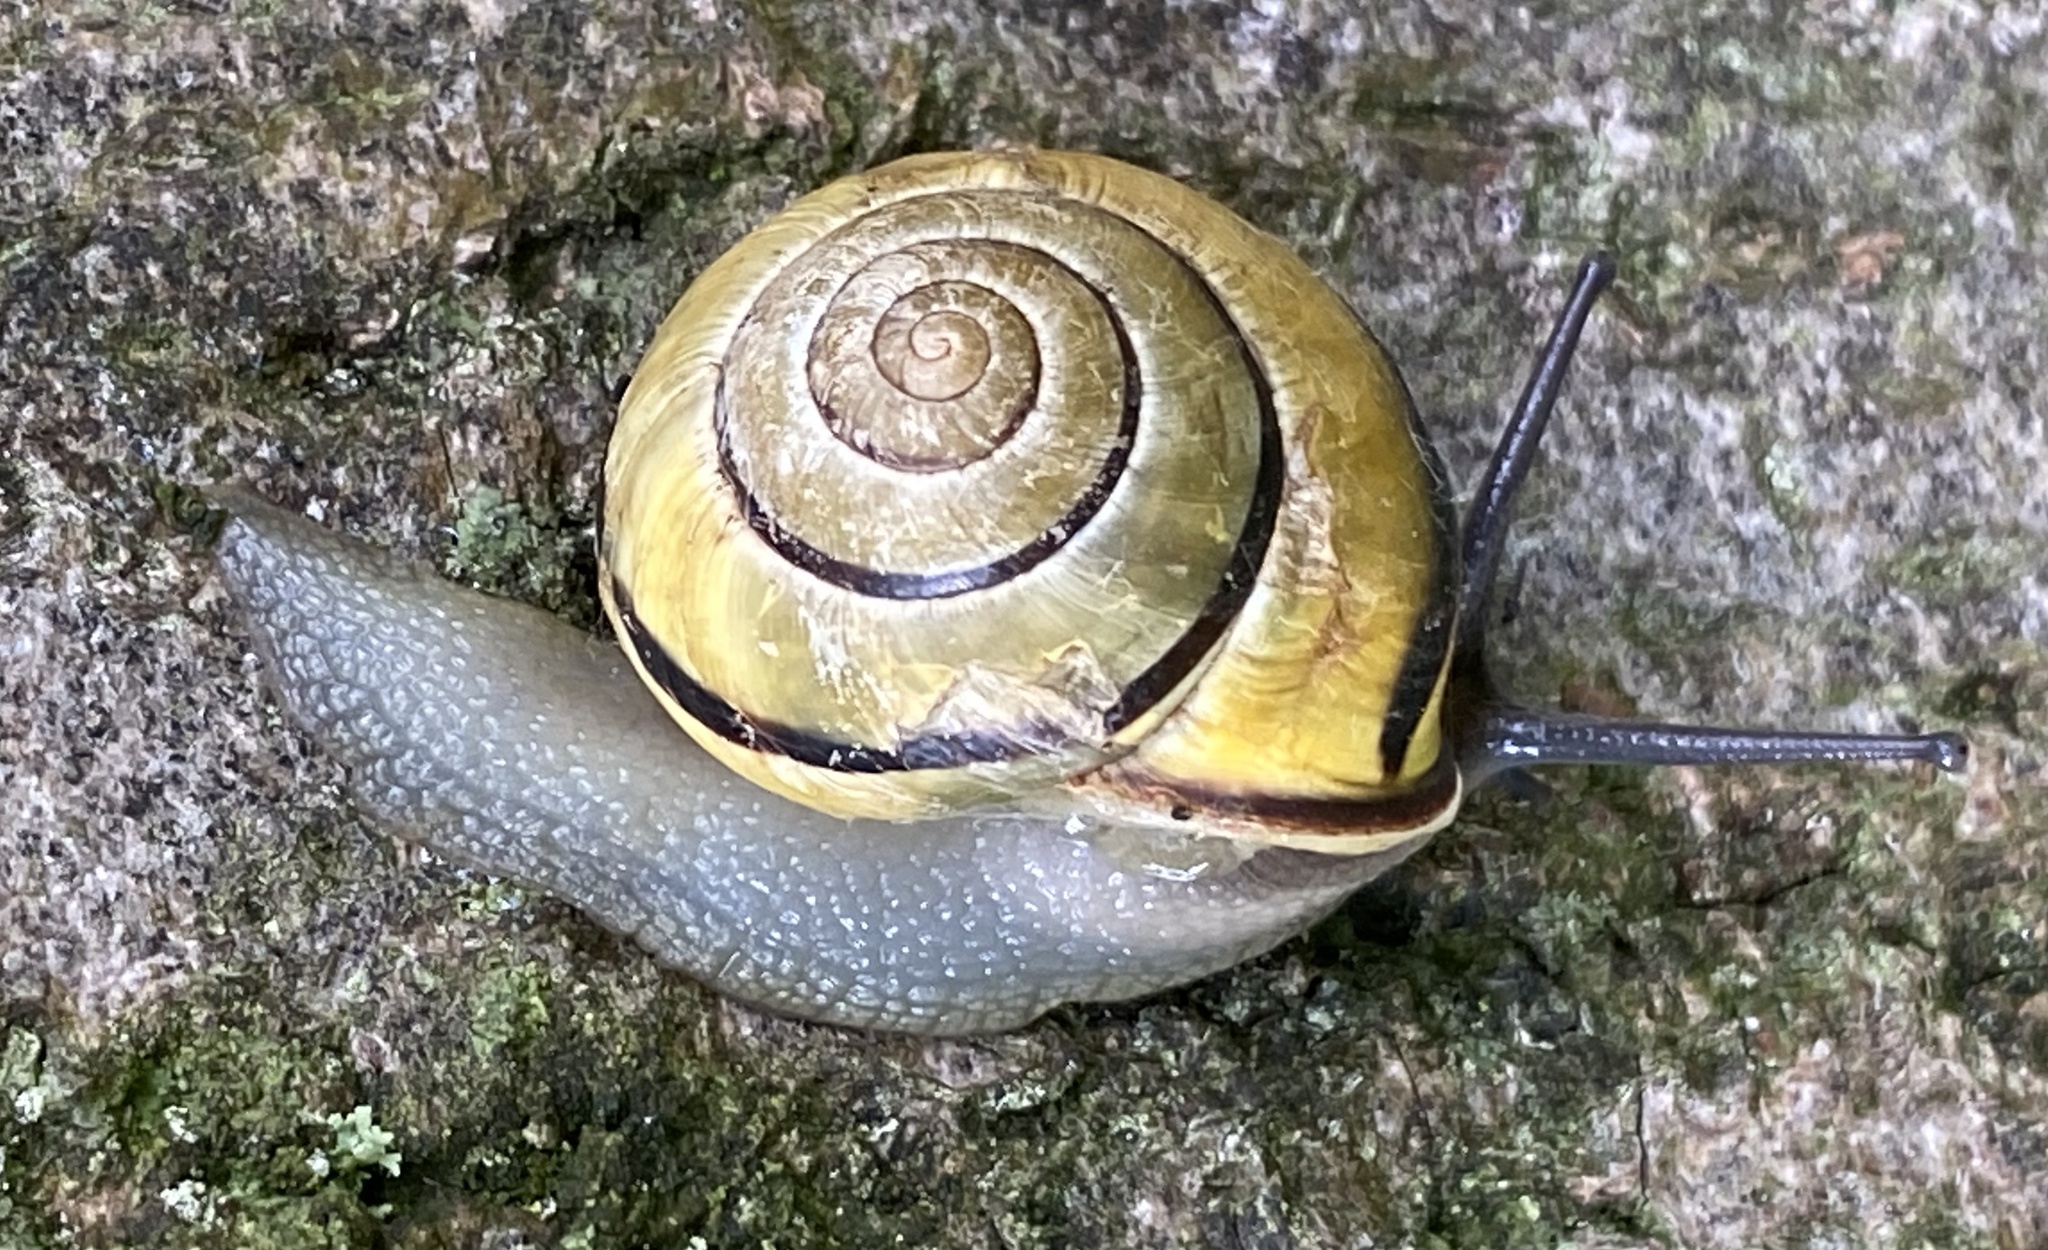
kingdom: Animalia
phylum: Mollusca
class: Gastropoda
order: Stylommatophora
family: Helicidae
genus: Cepaea
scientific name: Cepaea nemoralis
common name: Grovesnail
